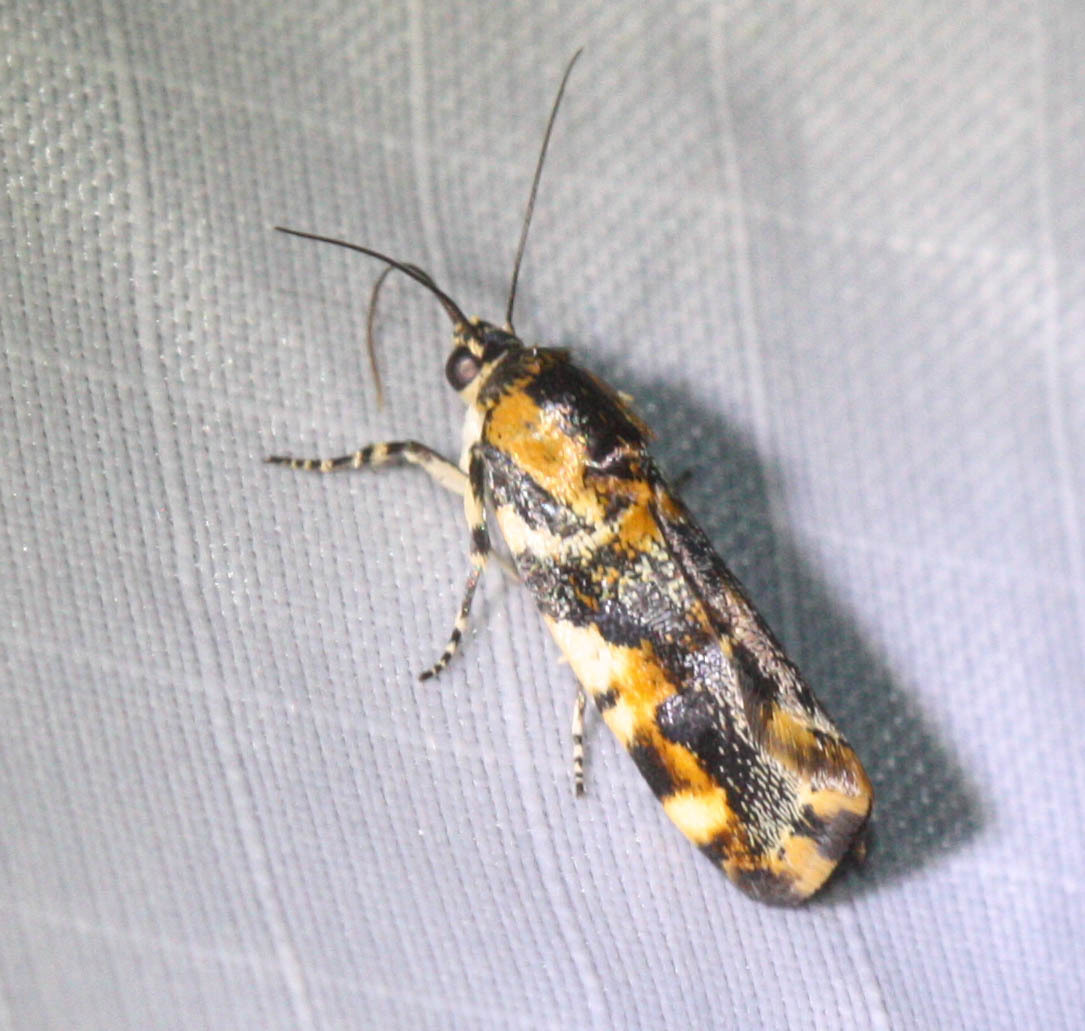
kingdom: Animalia
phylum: Arthropoda
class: Insecta
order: Lepidoptera
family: Noctuidae
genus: Spragueia
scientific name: Spragueia jaguaralis
